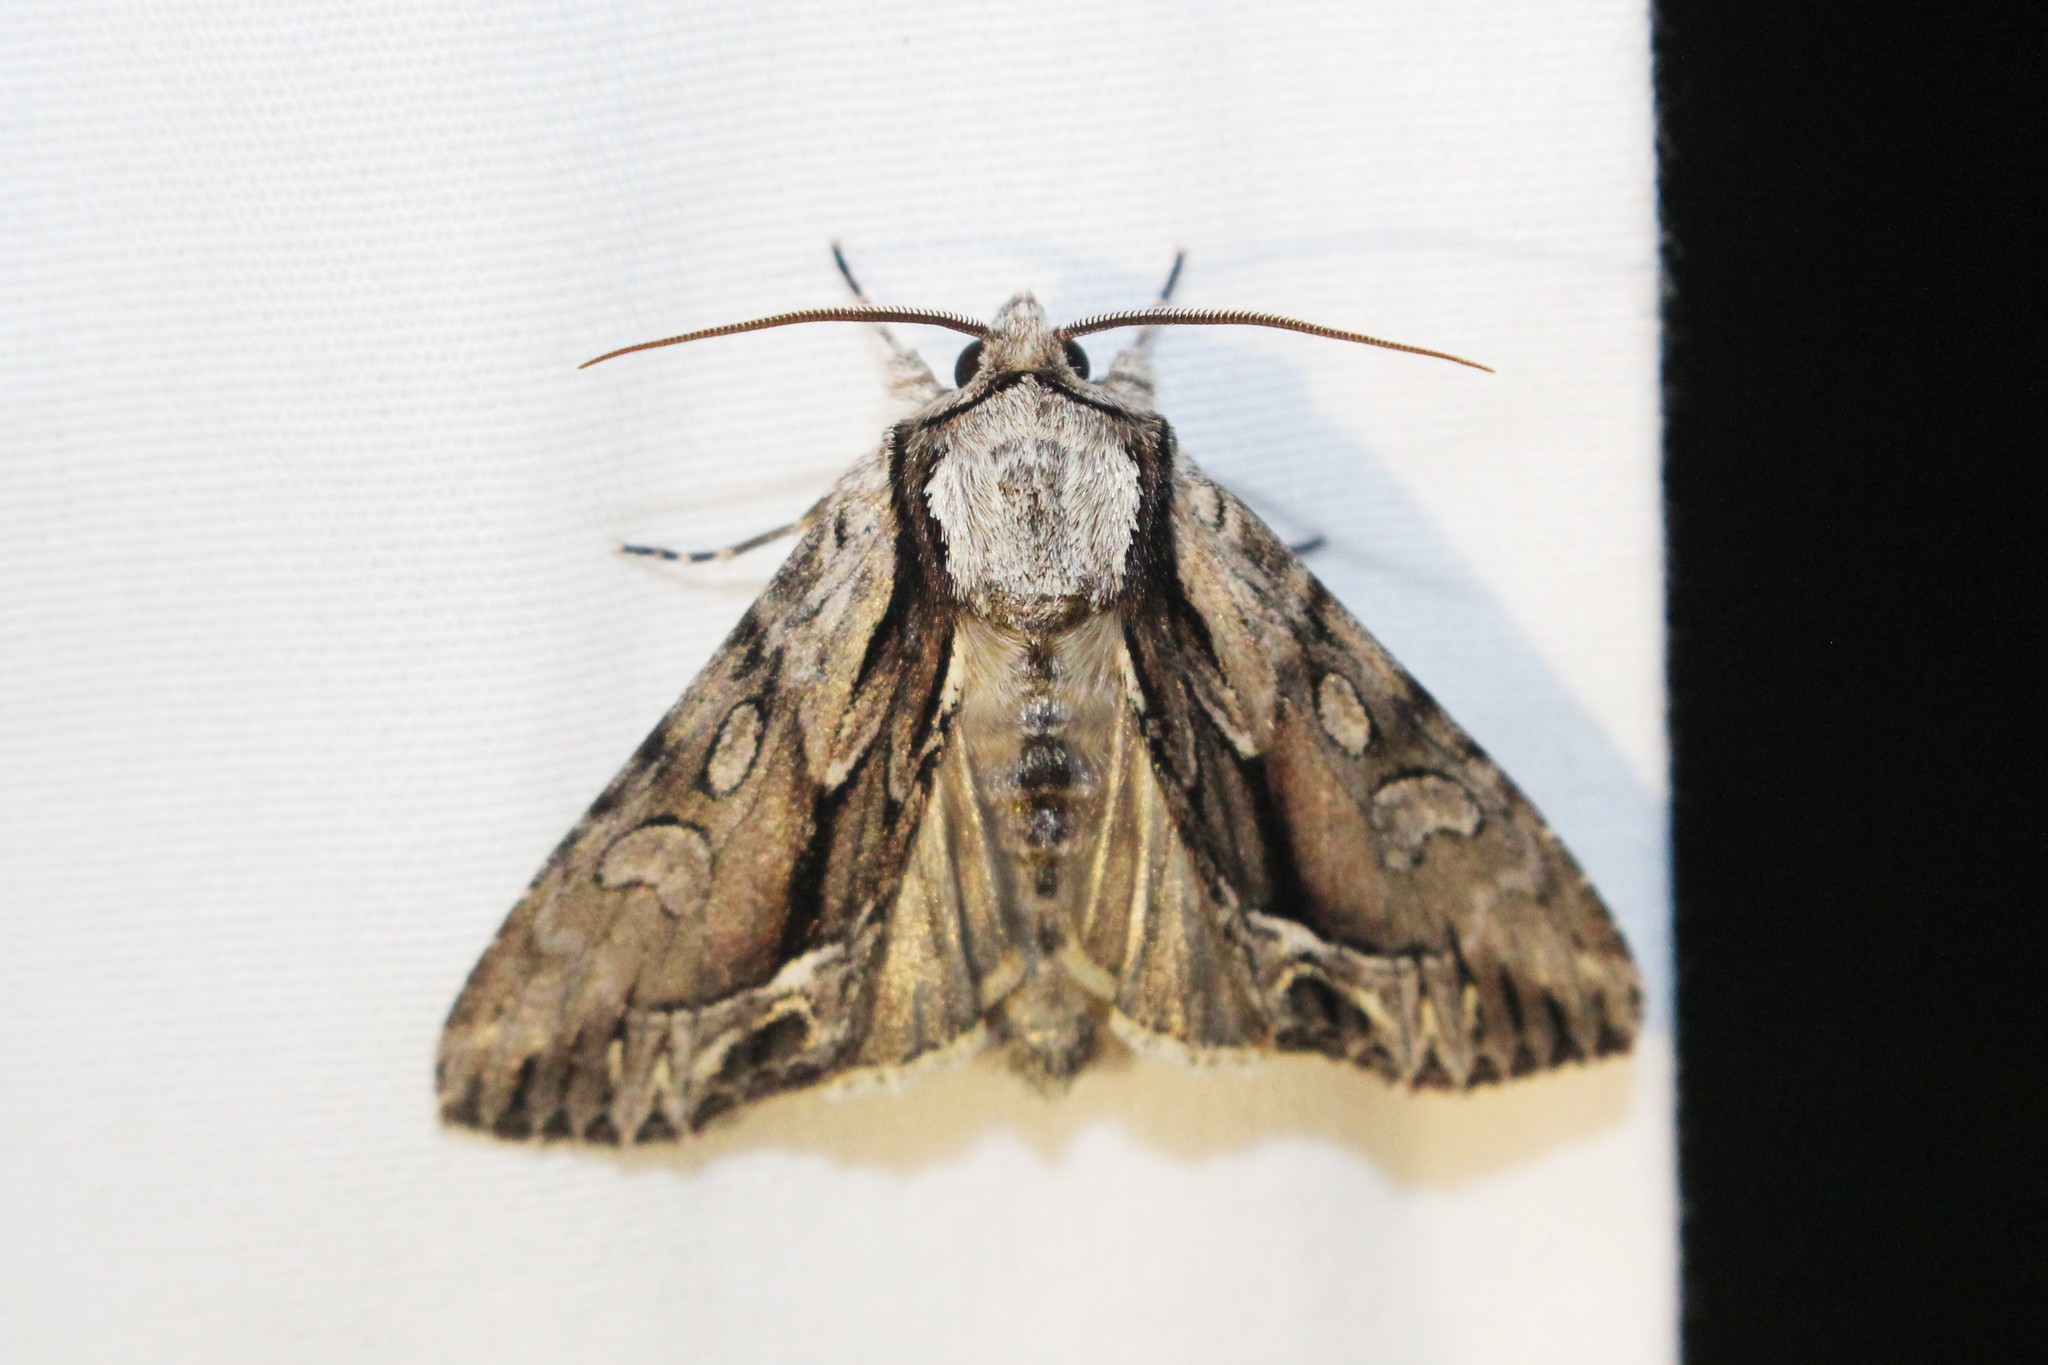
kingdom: Animalia
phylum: Arthropoda
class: Insecta
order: Lepidoptera
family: Noctuidae
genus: Hyppa
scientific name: Hyppa xylinoides
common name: Common hyppa moth
